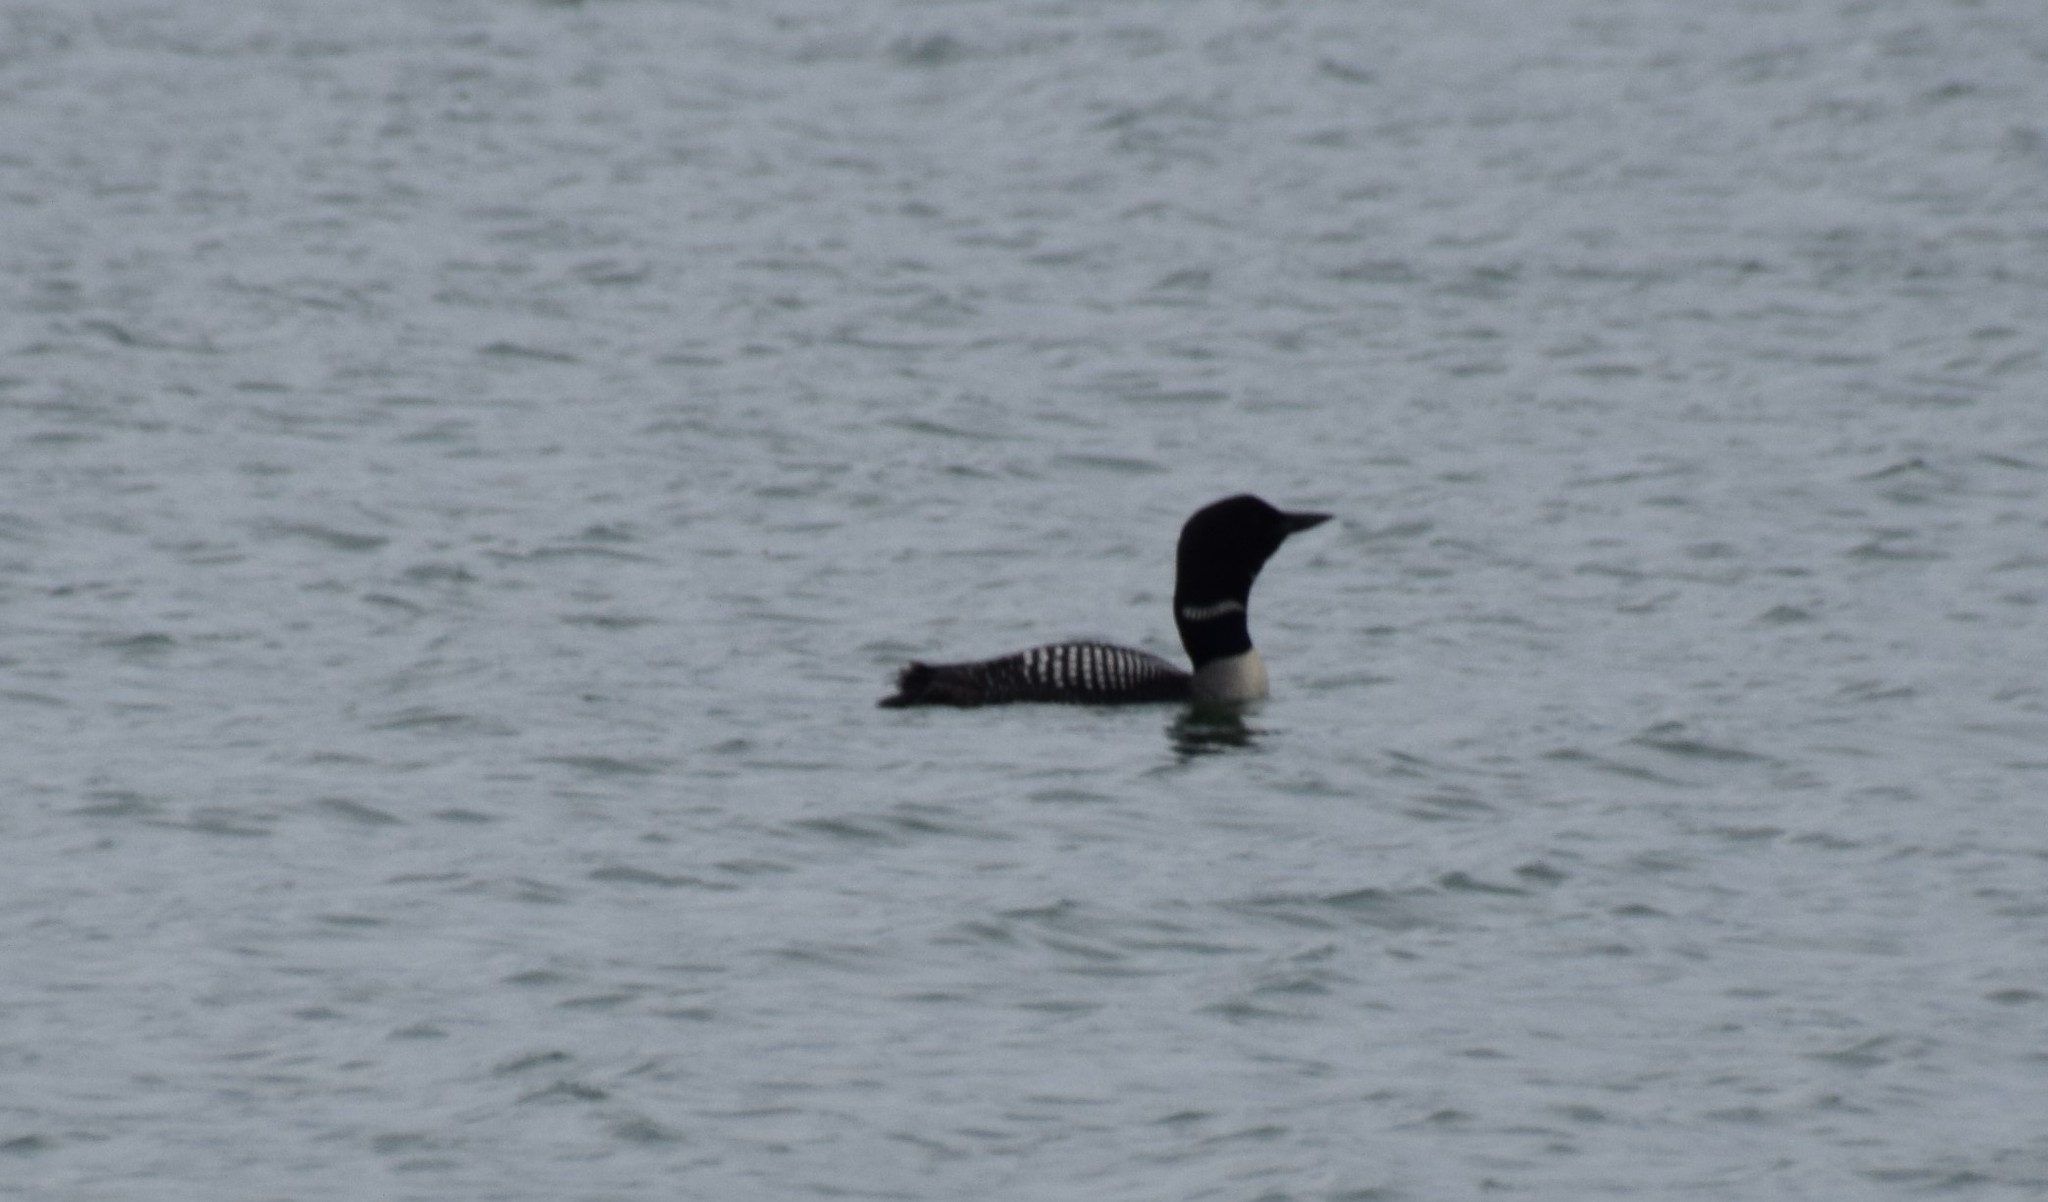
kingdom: Animalia
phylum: Chordata
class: Aves
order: Gaviiformes
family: Gaviidae
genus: Gavia
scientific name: Gavia immer
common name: Common loon
